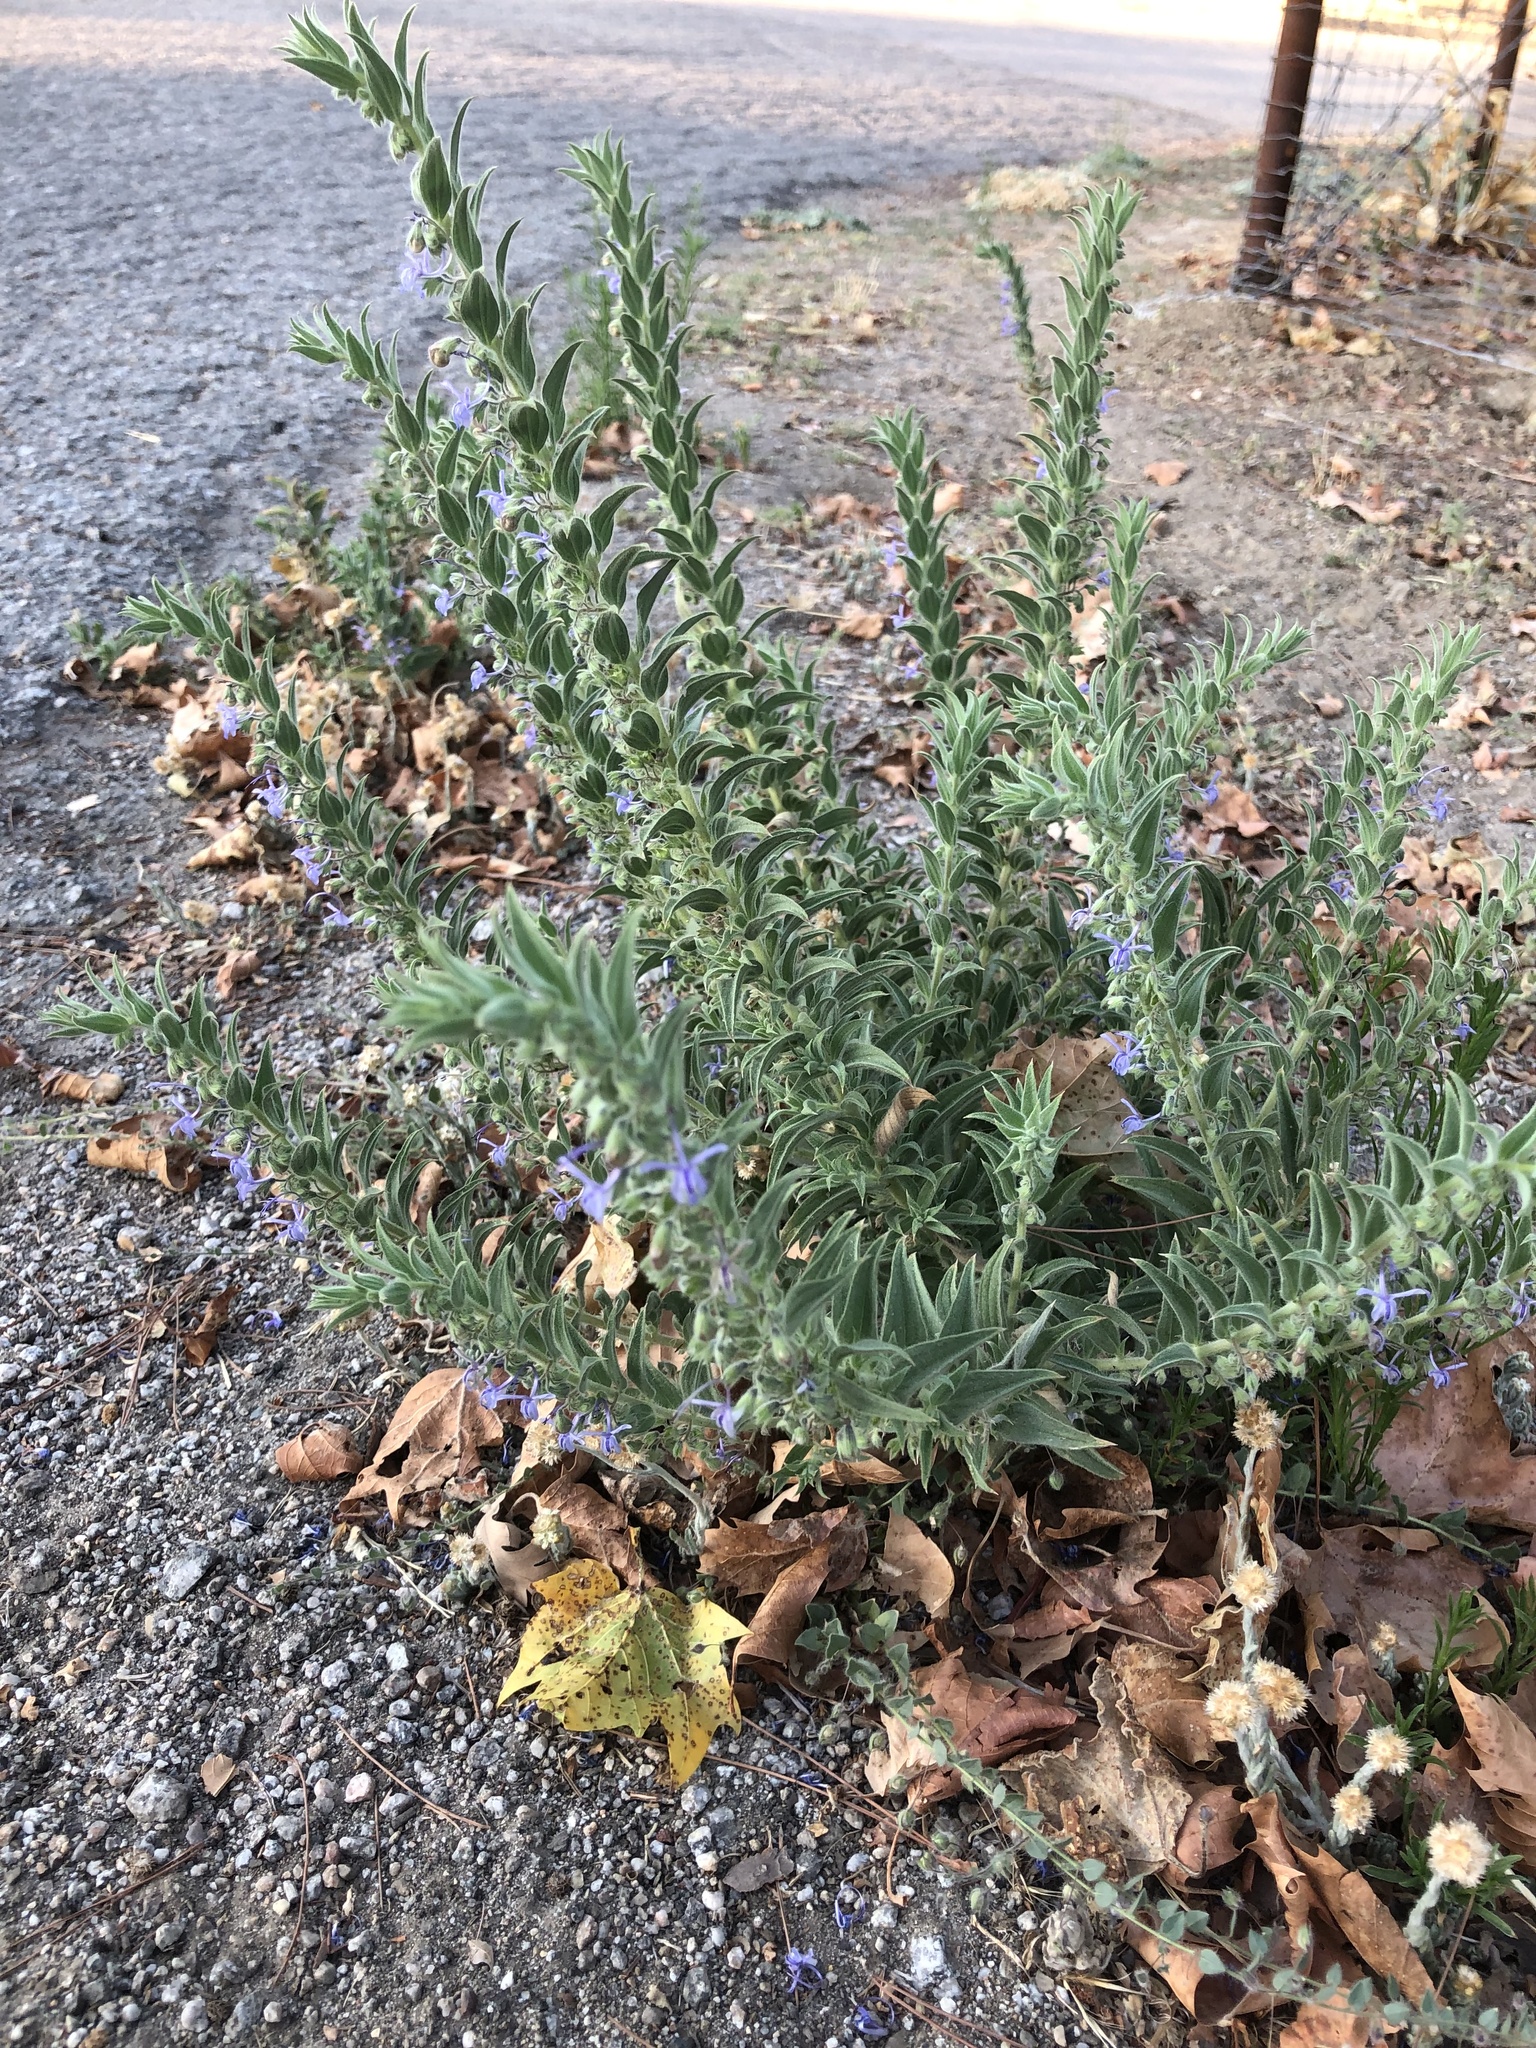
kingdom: Plantae
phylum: Tracheophyta
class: Magnoliopsida
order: Lamiales
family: Lamiaceae
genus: Trichostema
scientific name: Trichostema lanceolatum
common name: Vinegar-weed
